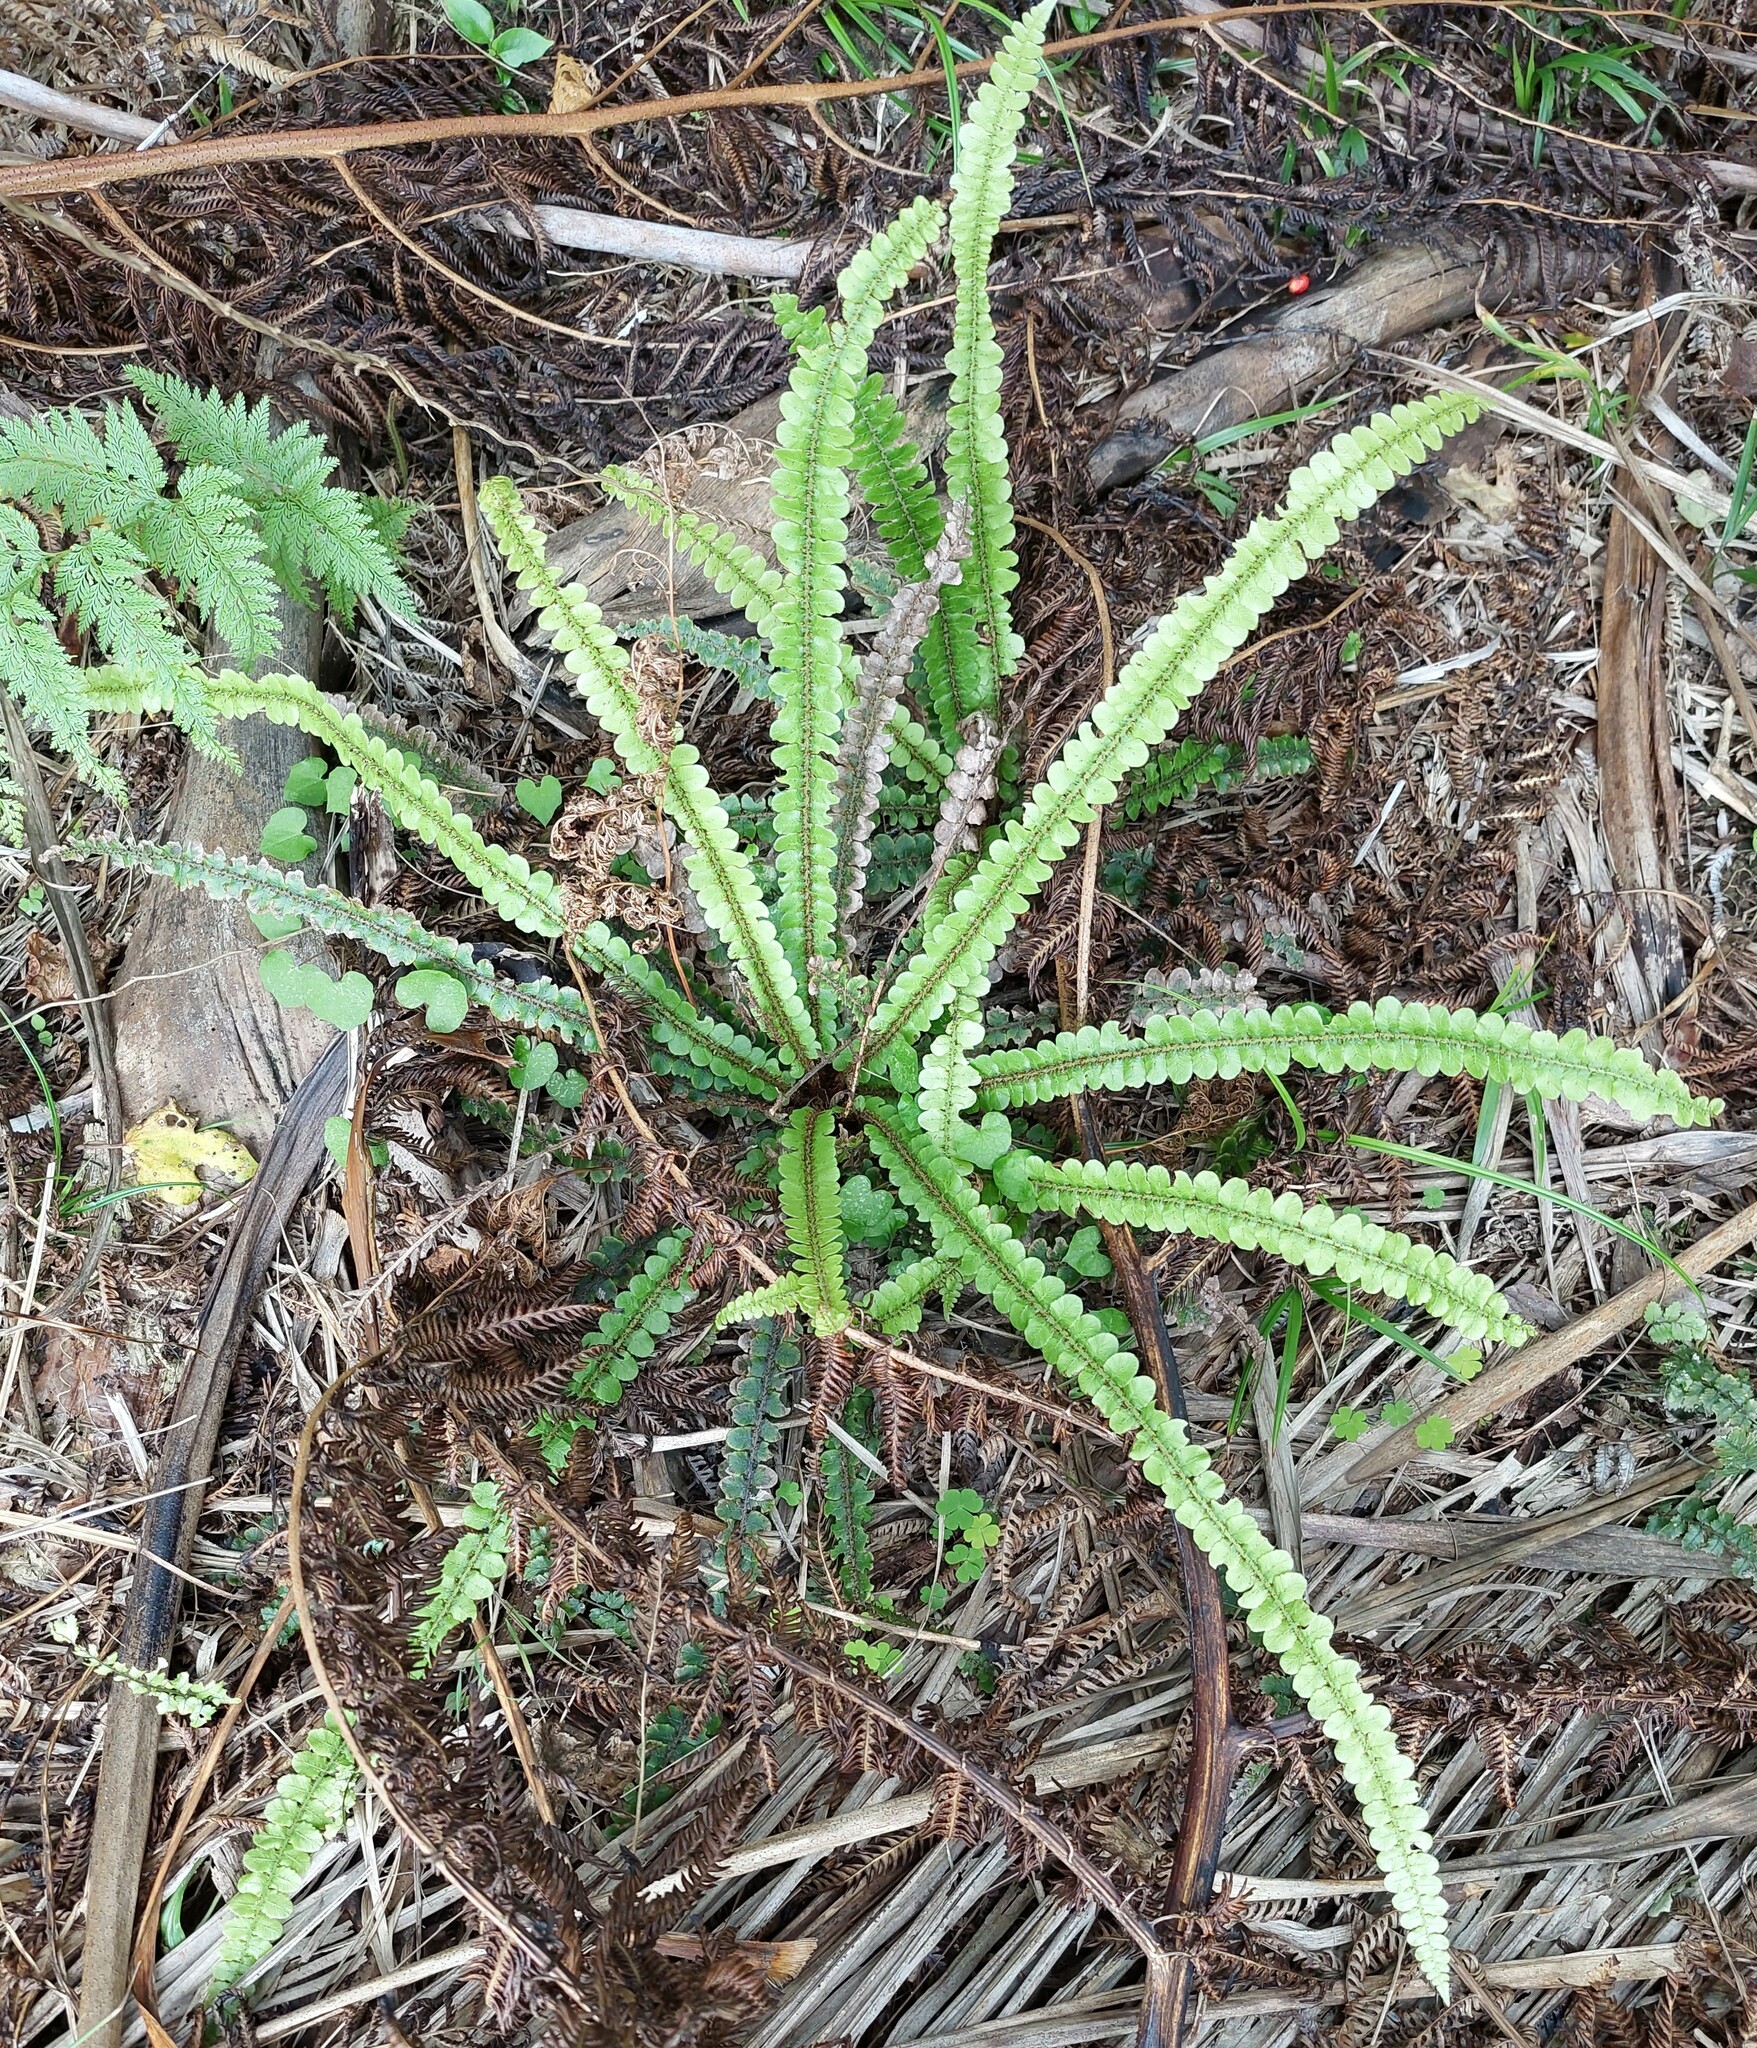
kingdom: Plantae
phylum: Tracheophyta
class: Polypodiopsida
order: Polypodiales
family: Blechnaceae
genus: Cranfillia
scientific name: Cranfillia fluviatilis
